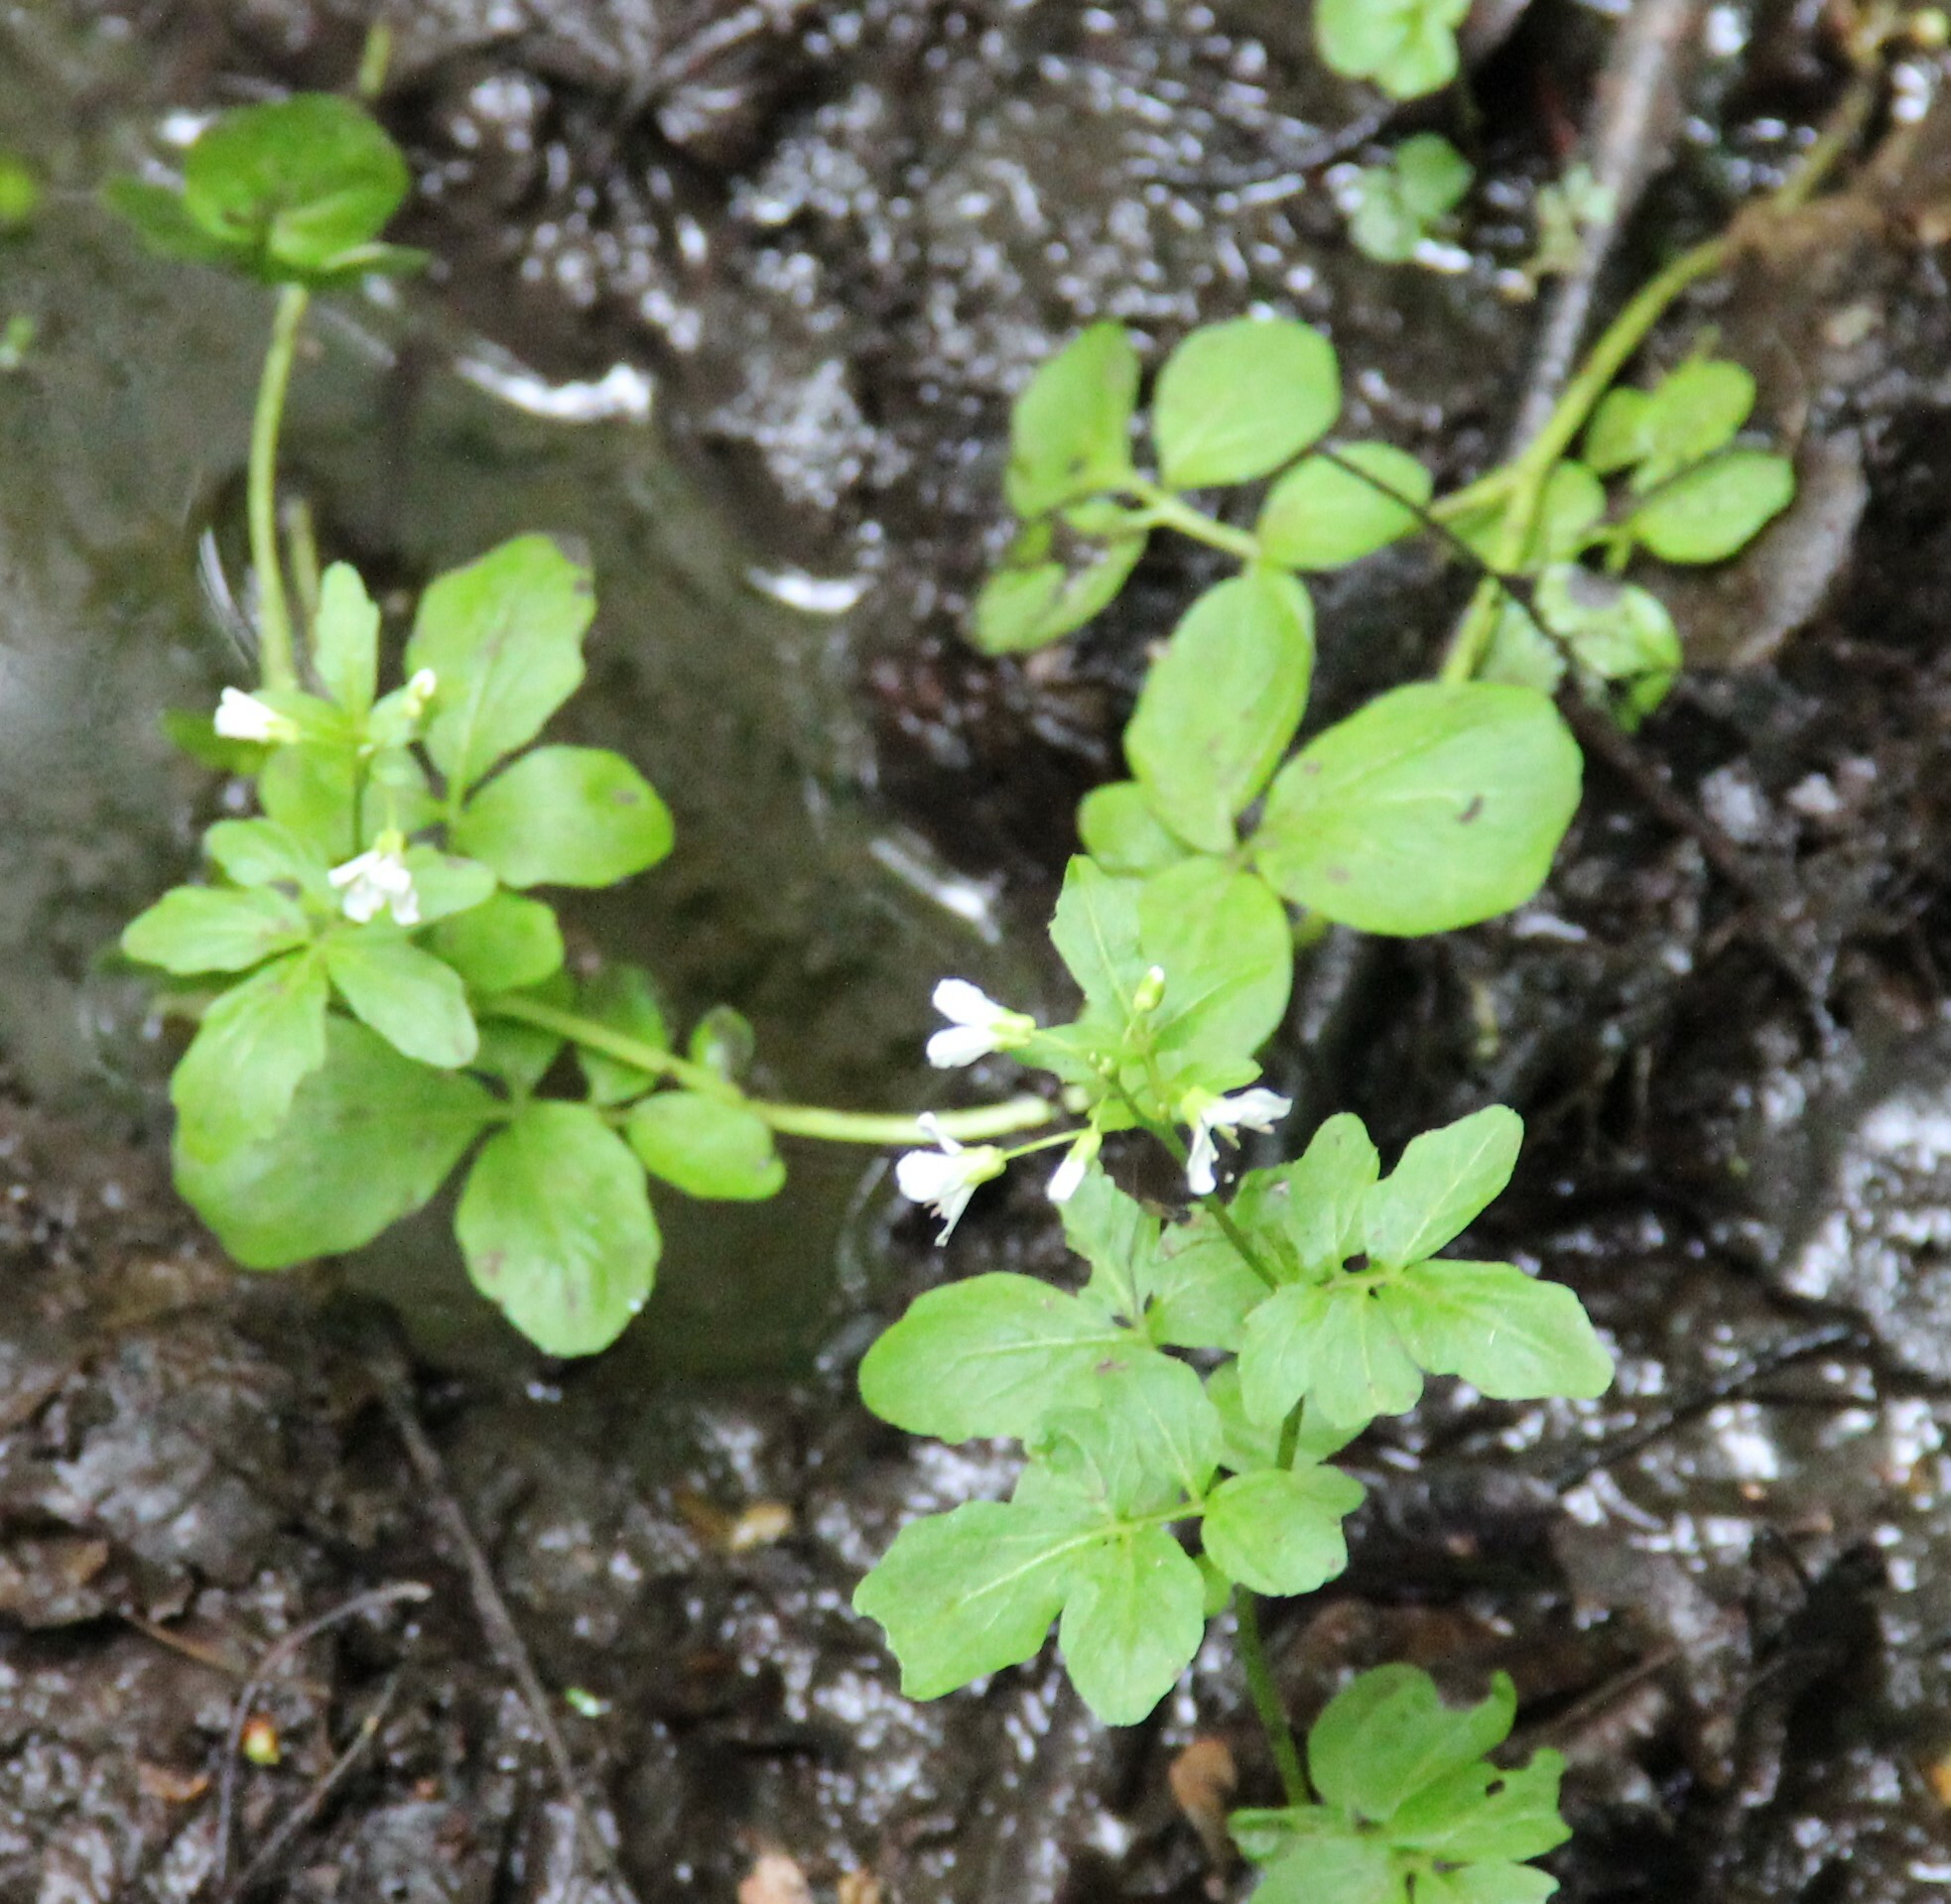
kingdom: Plantae
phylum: Tracheophyta
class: Magnoliopsida
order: Brassicales
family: Brassicaceae
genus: Cardamine
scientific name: Cardamine amara
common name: Large bitter-cress
